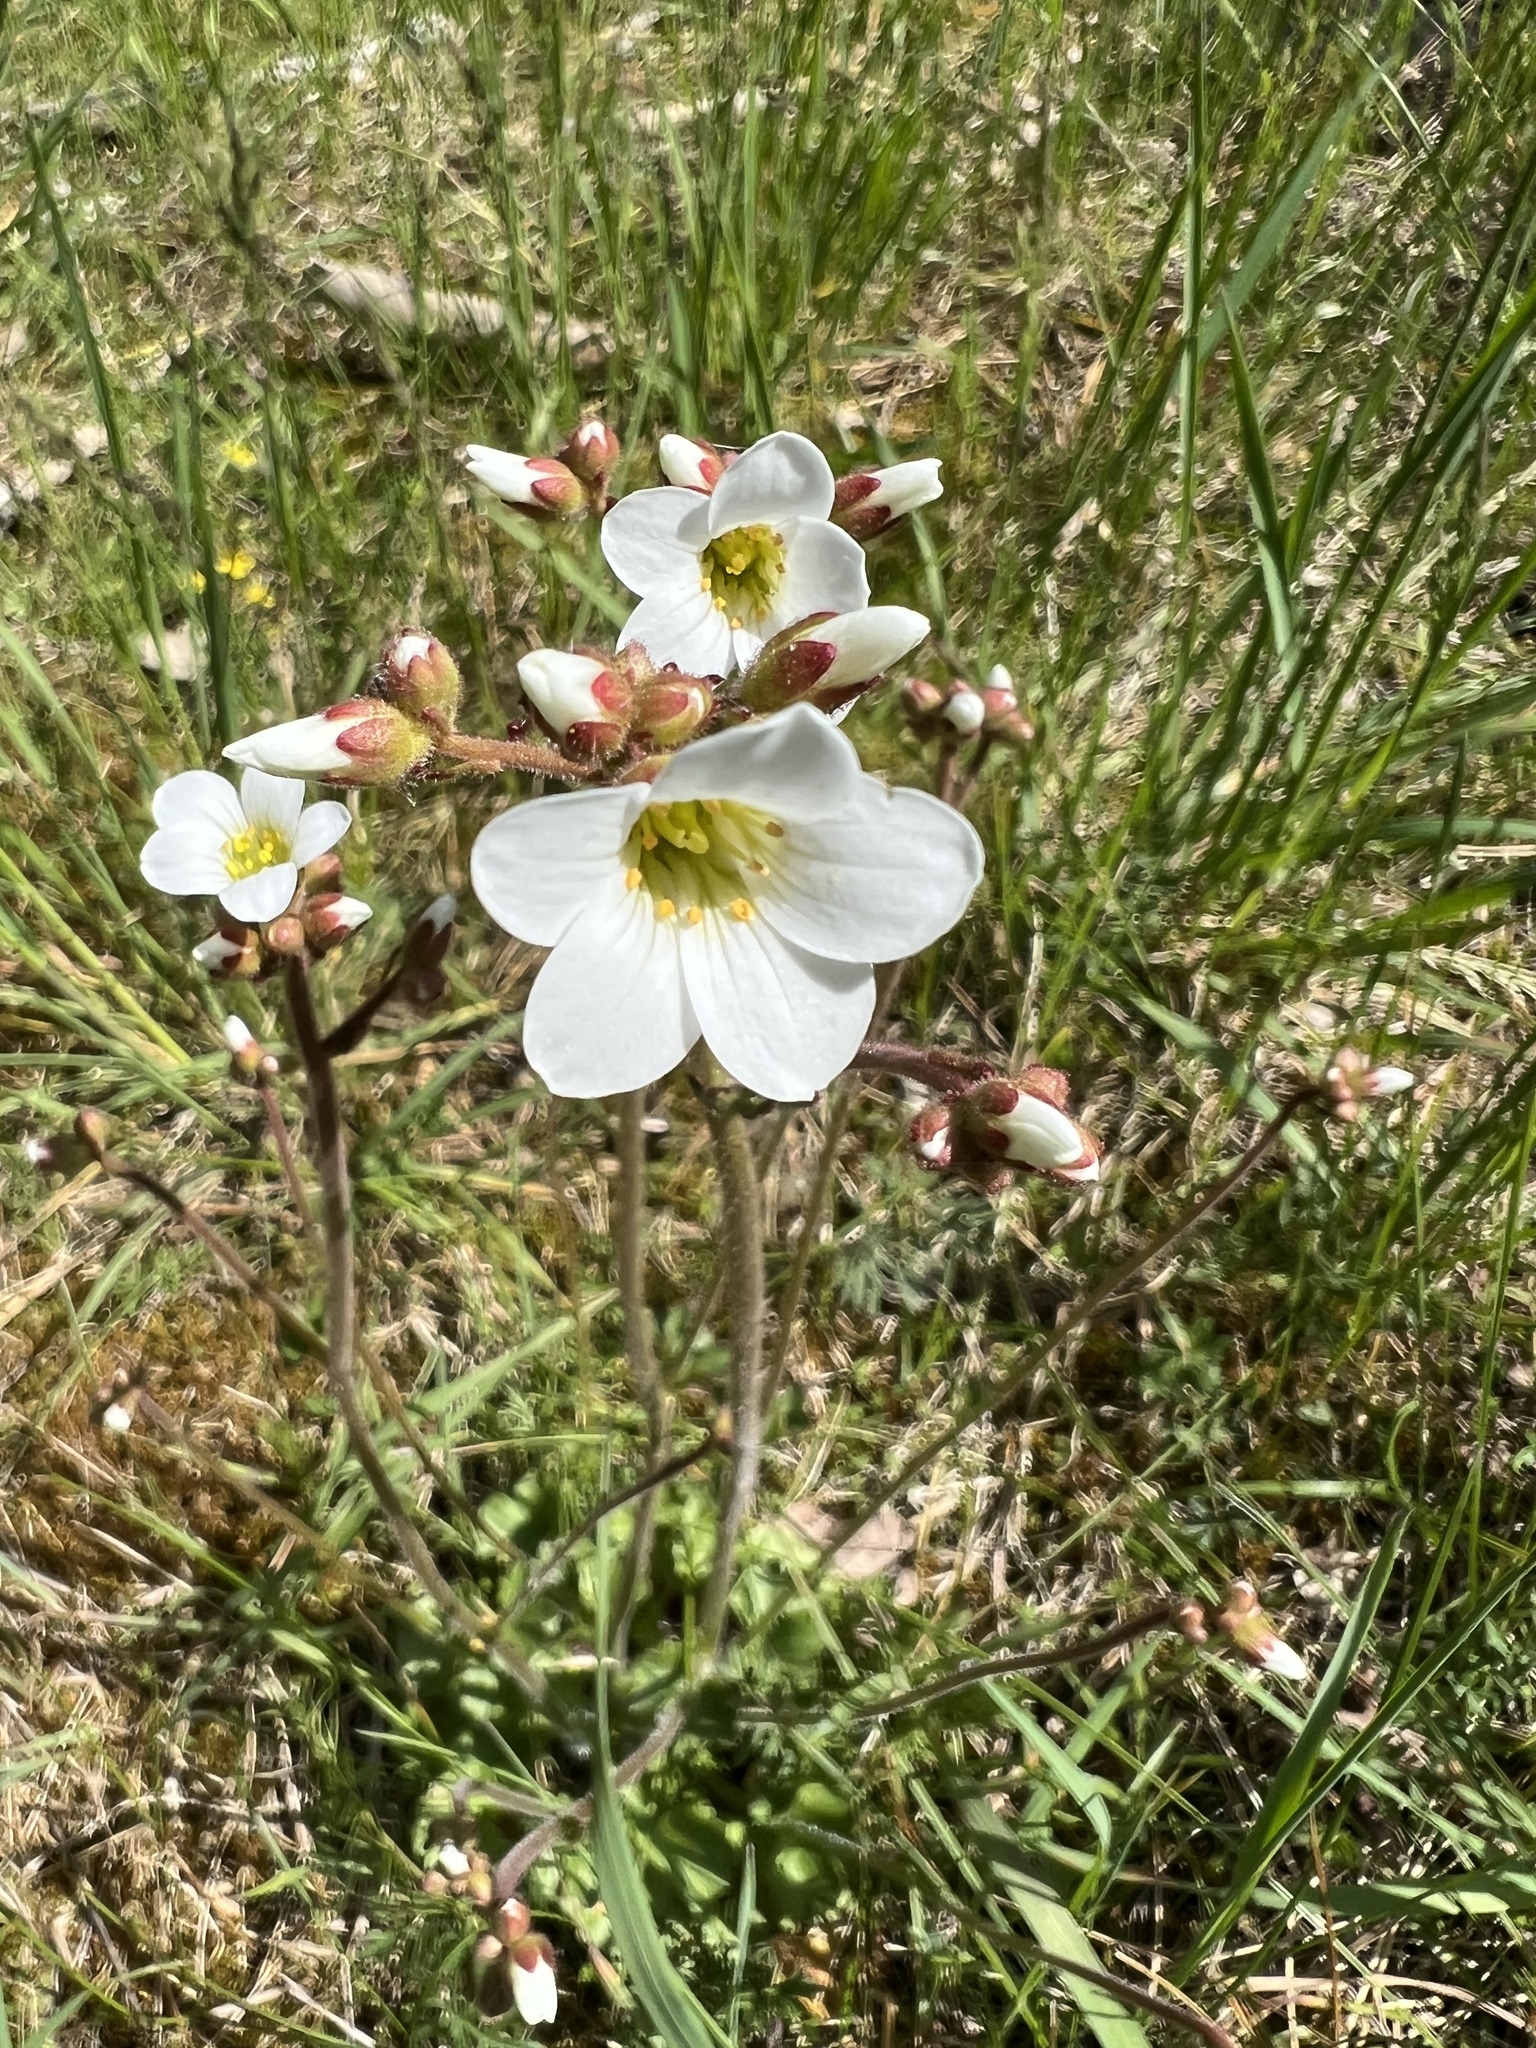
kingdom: Plantae
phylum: Tracheophyta
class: Magnoliopsida
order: Saxifragales
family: Saxifragaceae
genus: Saxifraga
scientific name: Saxifraga granulata
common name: Meadow saxifrage
